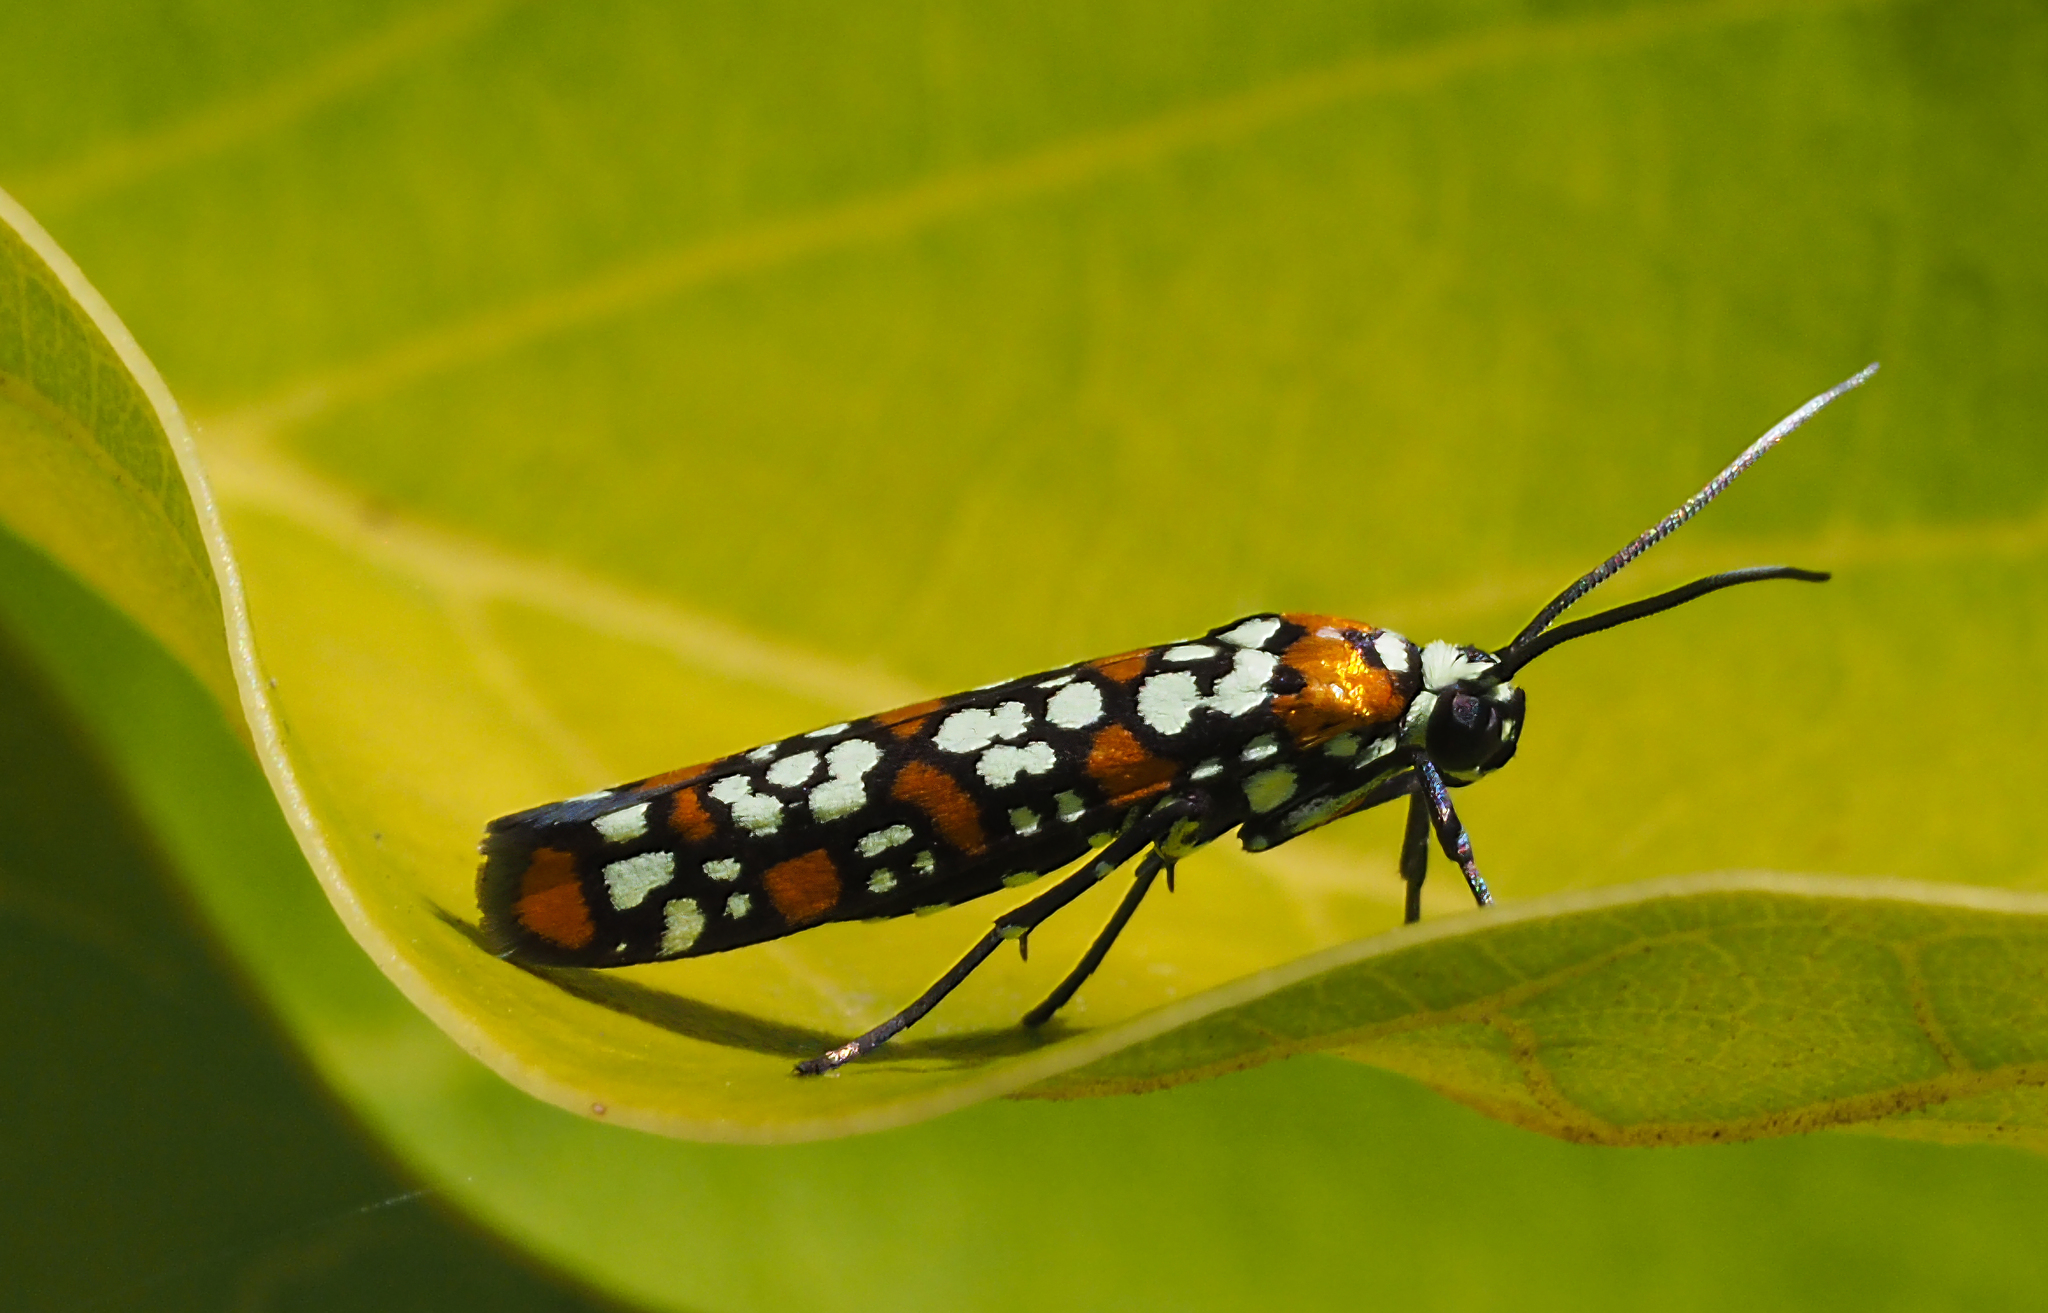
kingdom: Animalia
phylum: Arthropoda
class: Insecta
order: Lepidoptera
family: Attevidae
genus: Atteva
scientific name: Atteva punctella
